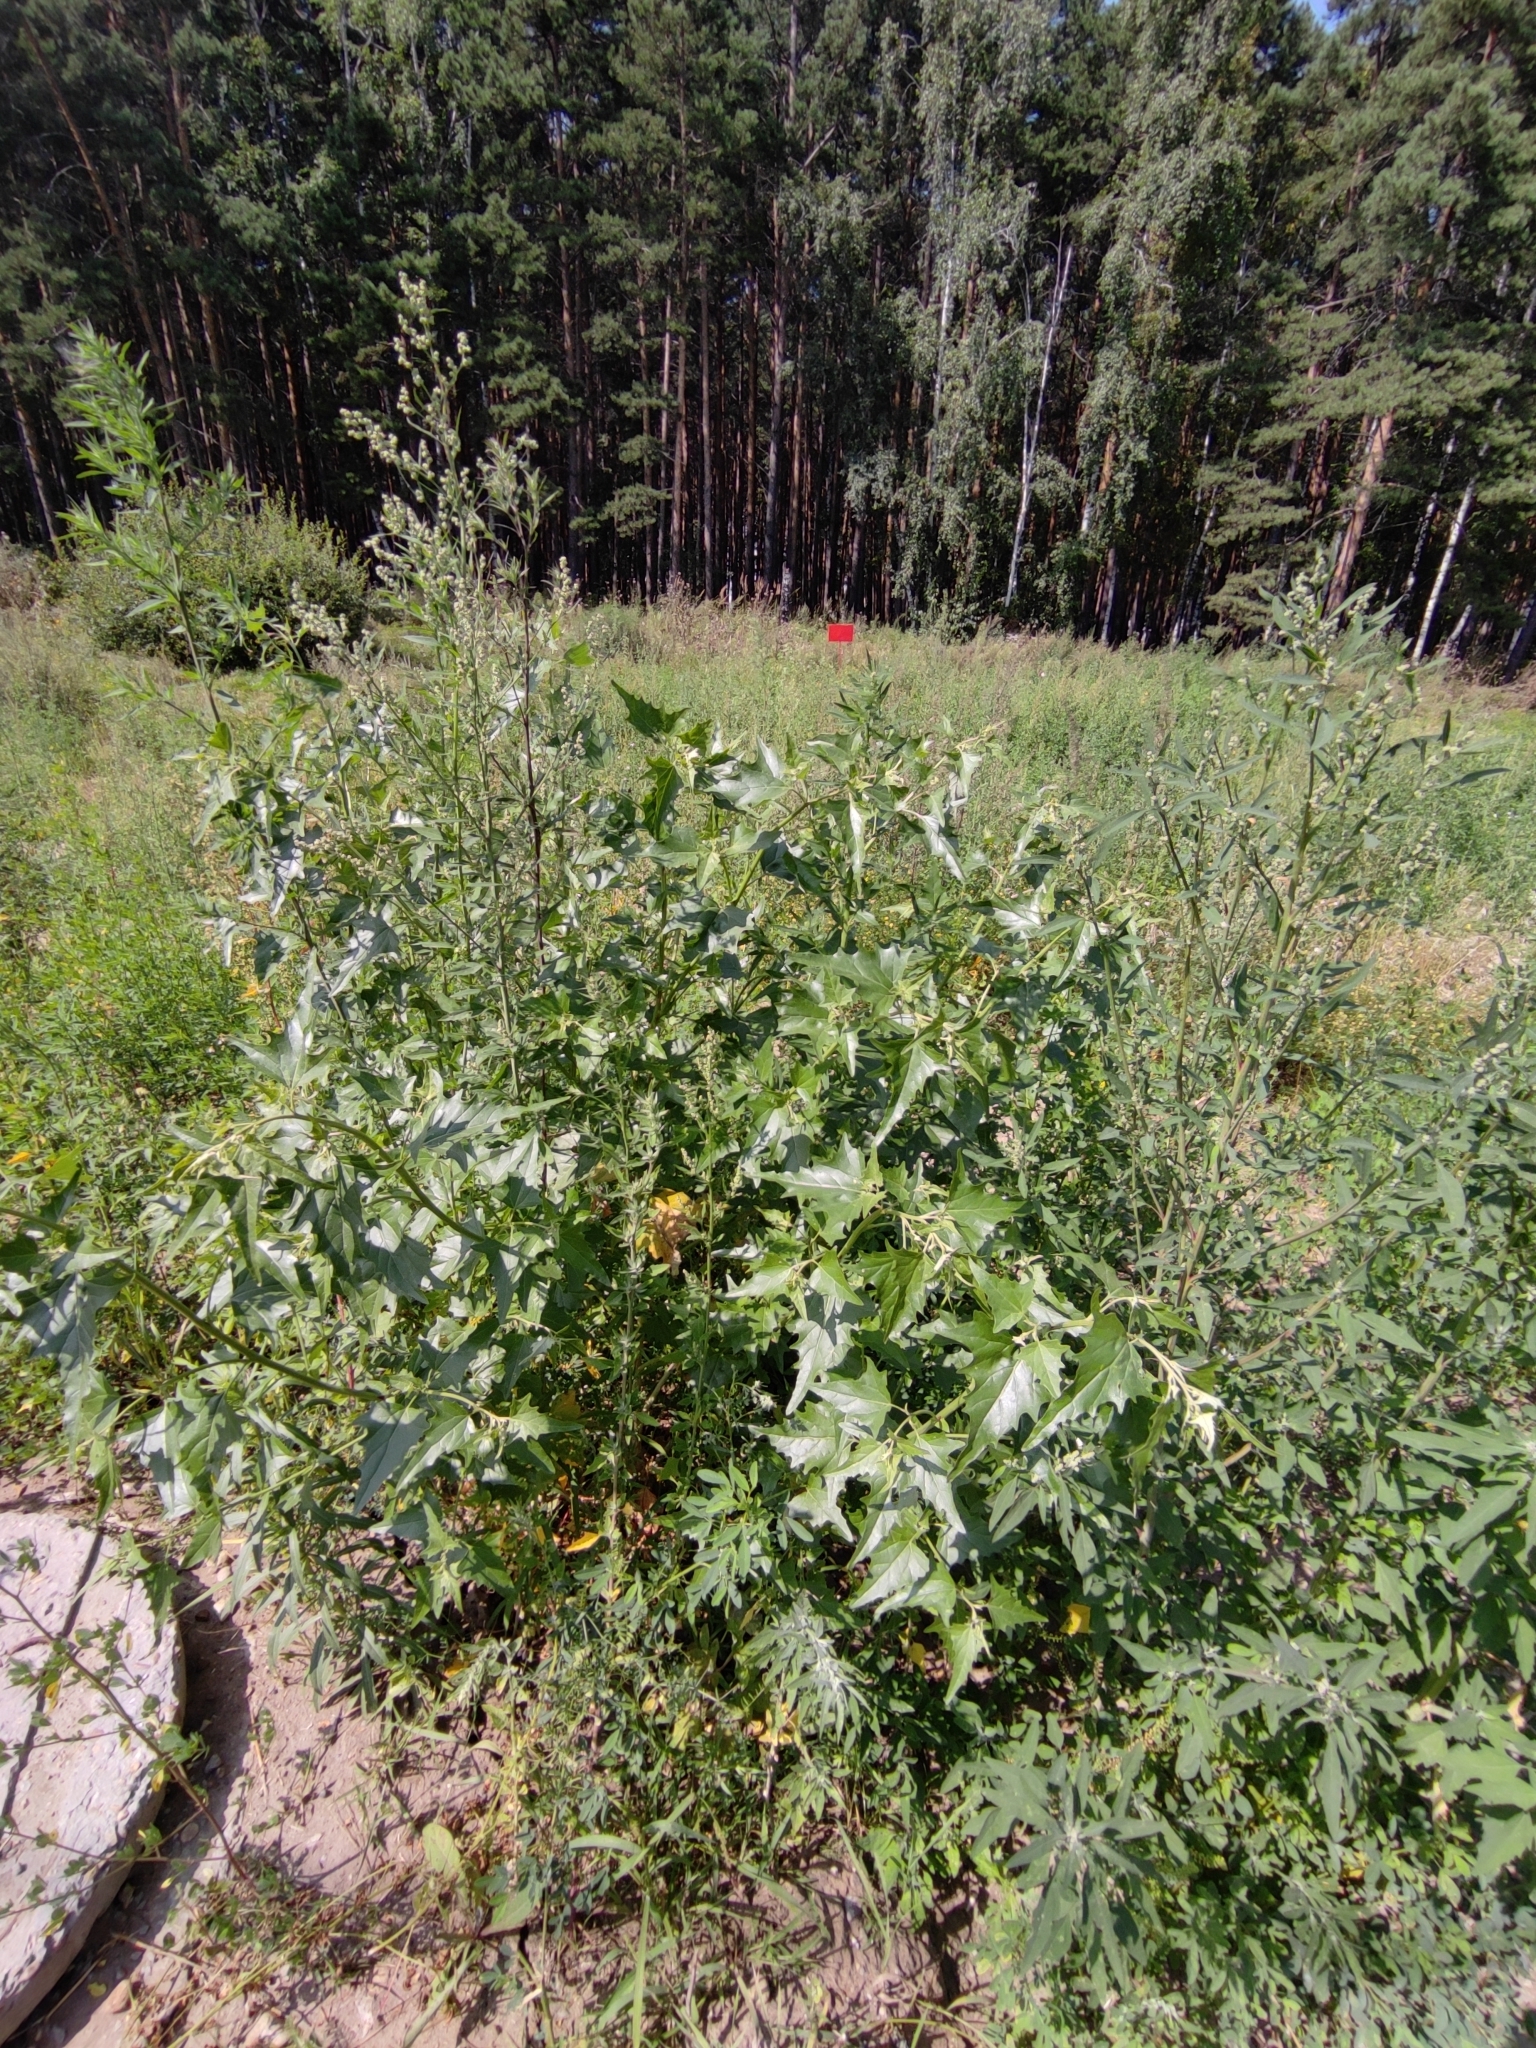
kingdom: Plantae
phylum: Tracheophyta
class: Magnoliopsida
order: Caryophyllales
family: Amaranthaceae
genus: Atriplex
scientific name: Atriplex sagittata
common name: Purple orache
